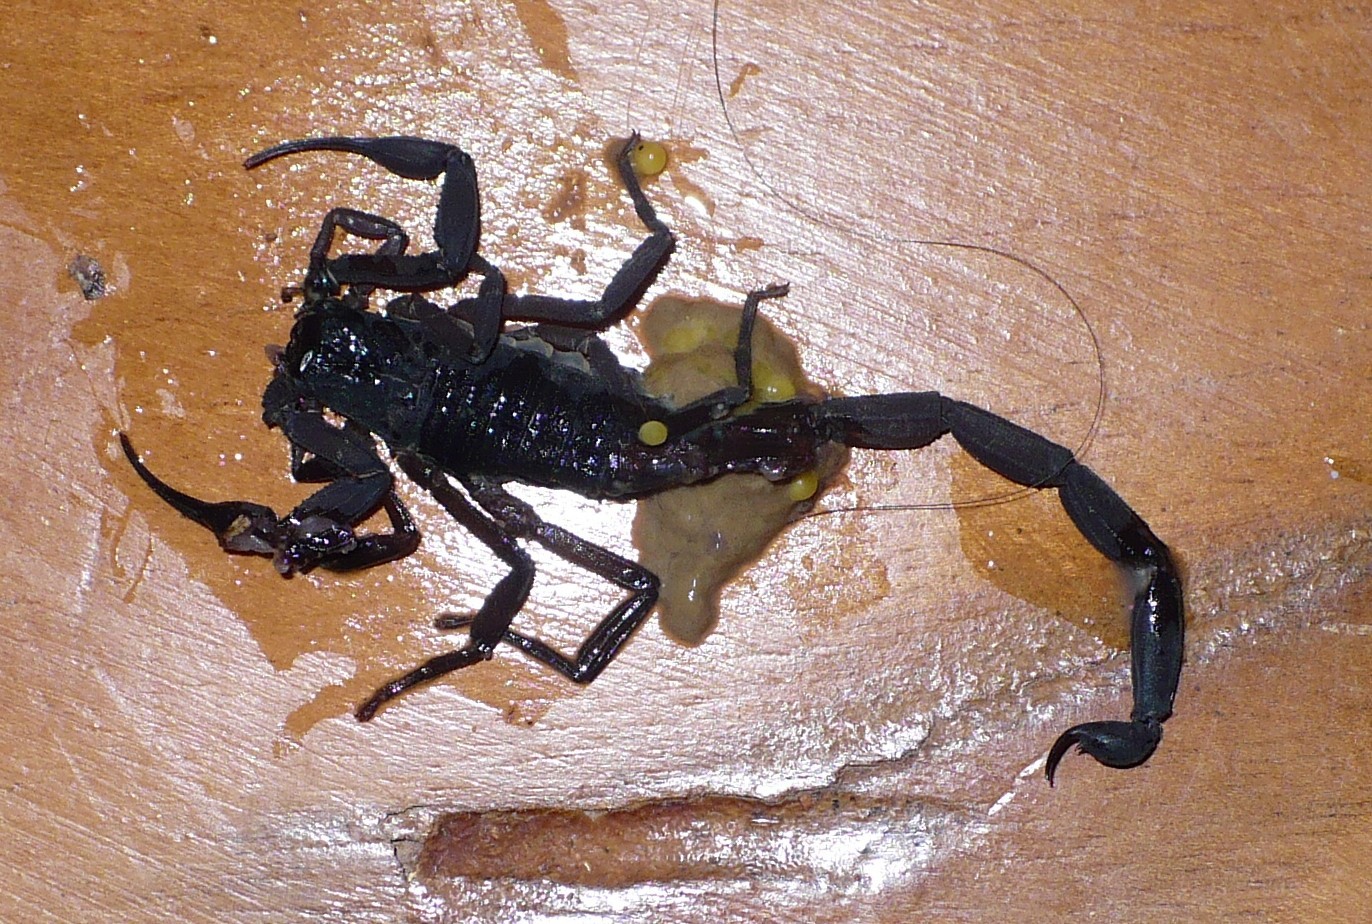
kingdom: Animalia
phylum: Arthropoda
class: Arachnida
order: Scorpiones
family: Buthidae
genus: Centruroides
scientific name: Centruroides gracilis
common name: Scorpions
